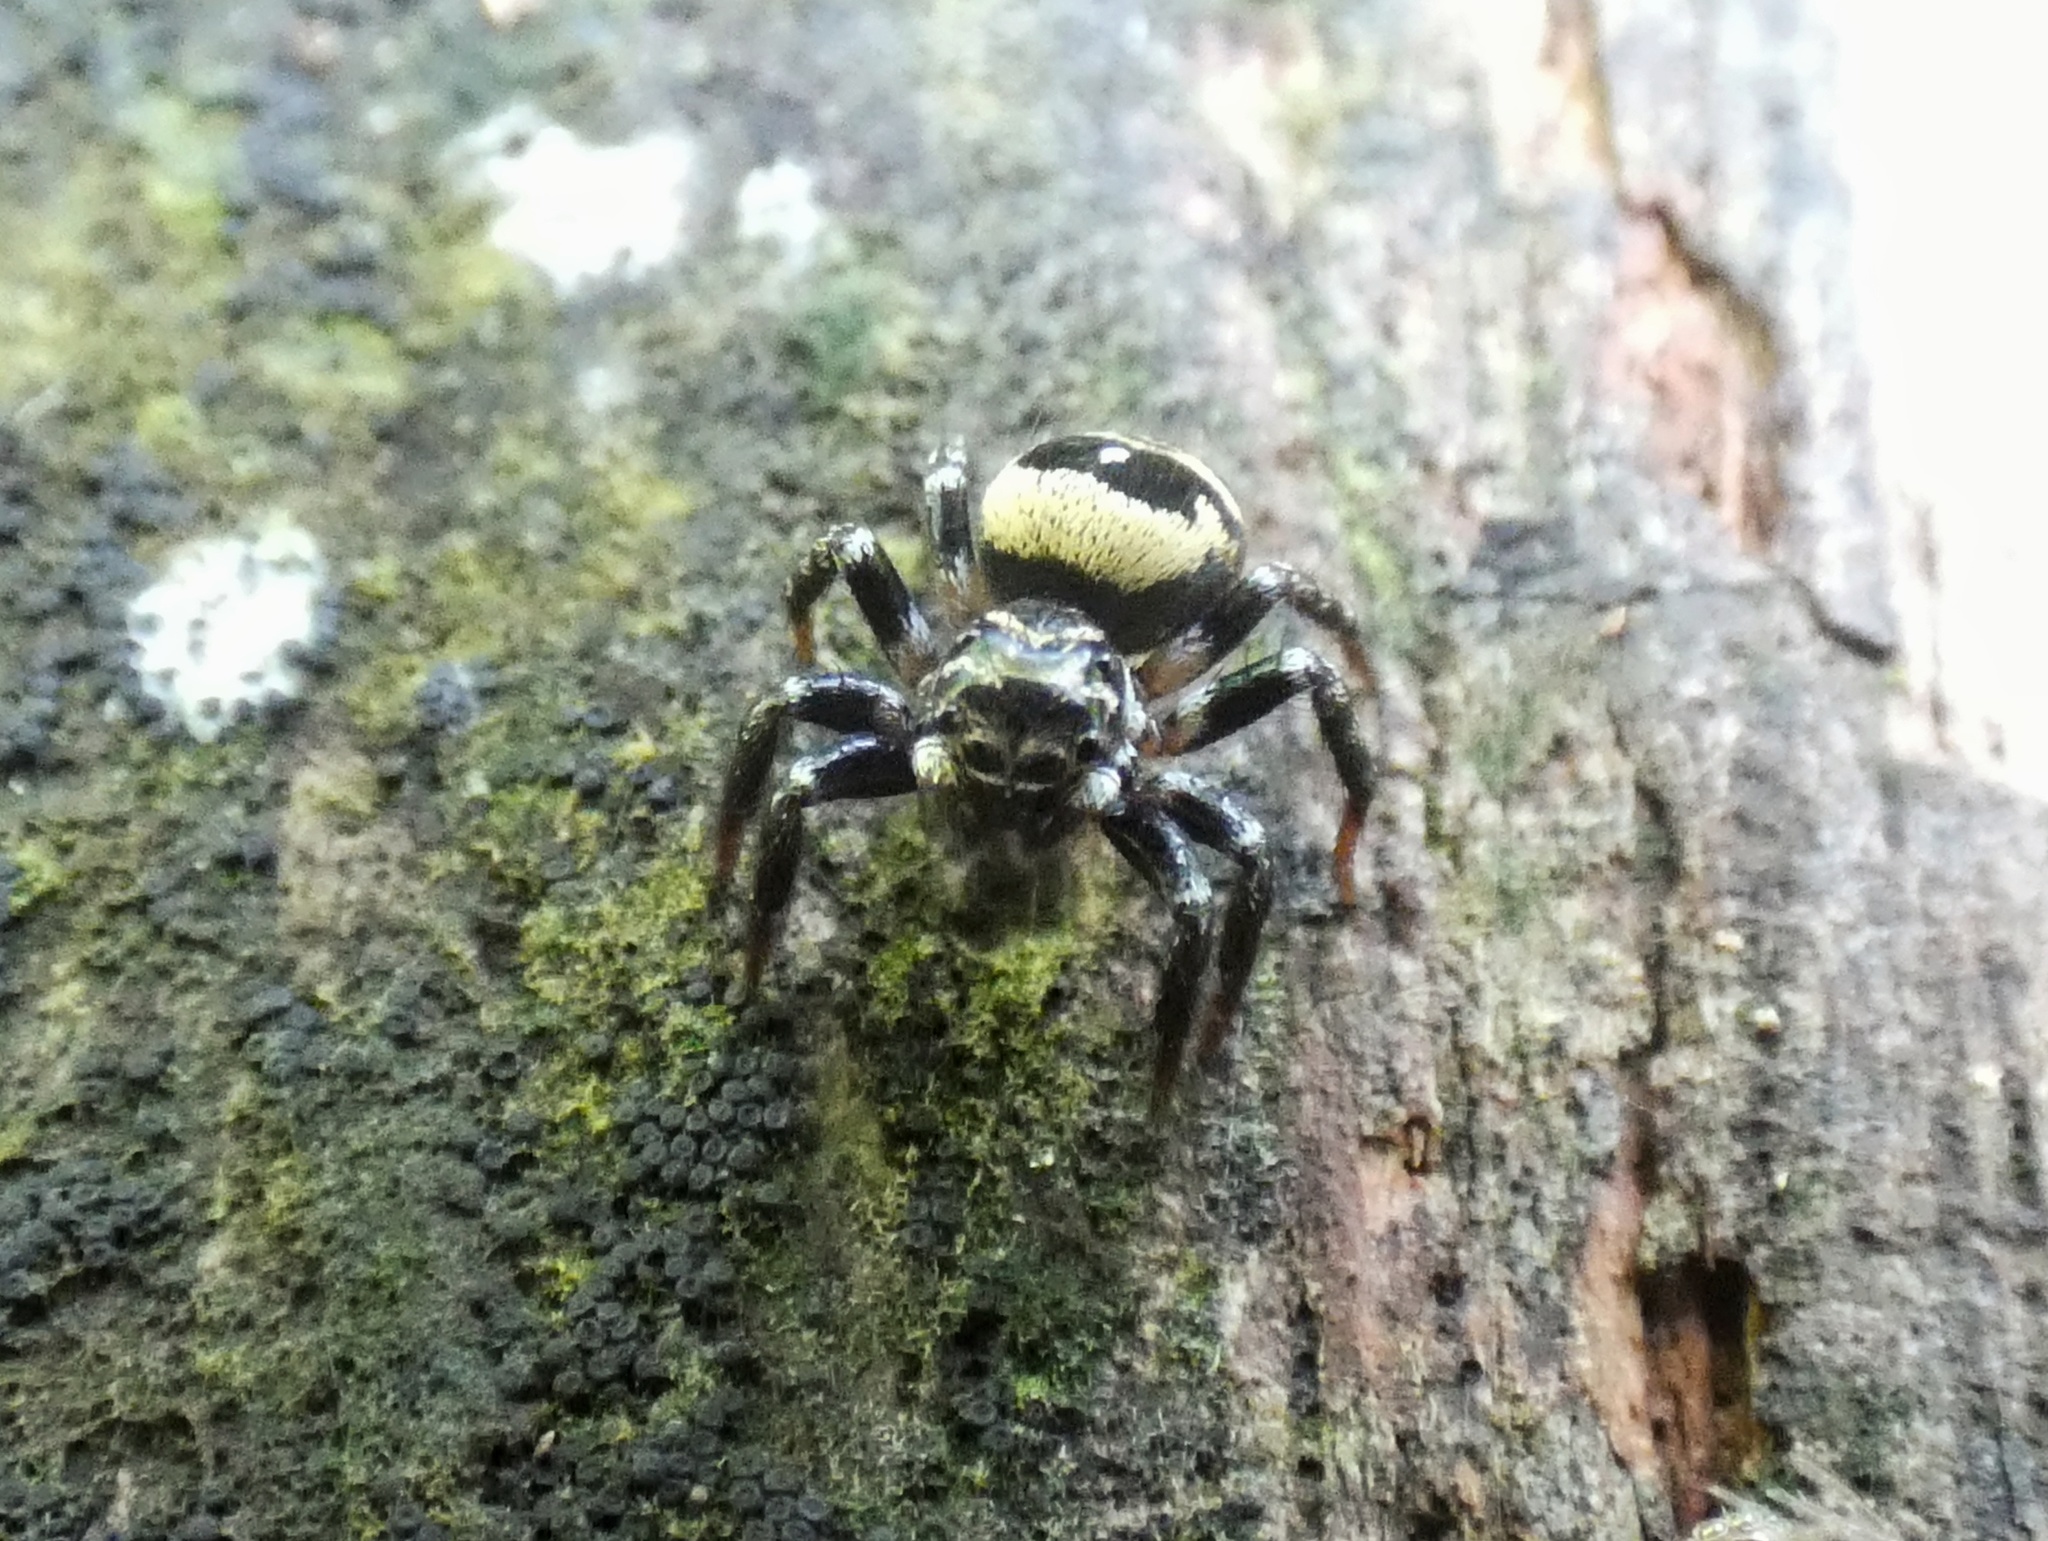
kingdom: Animalia
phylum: Arthropoda
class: Arachnida
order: Araneae
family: Salticidae
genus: Corythalia
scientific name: Corythalia bicincta
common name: Jumping spiders
